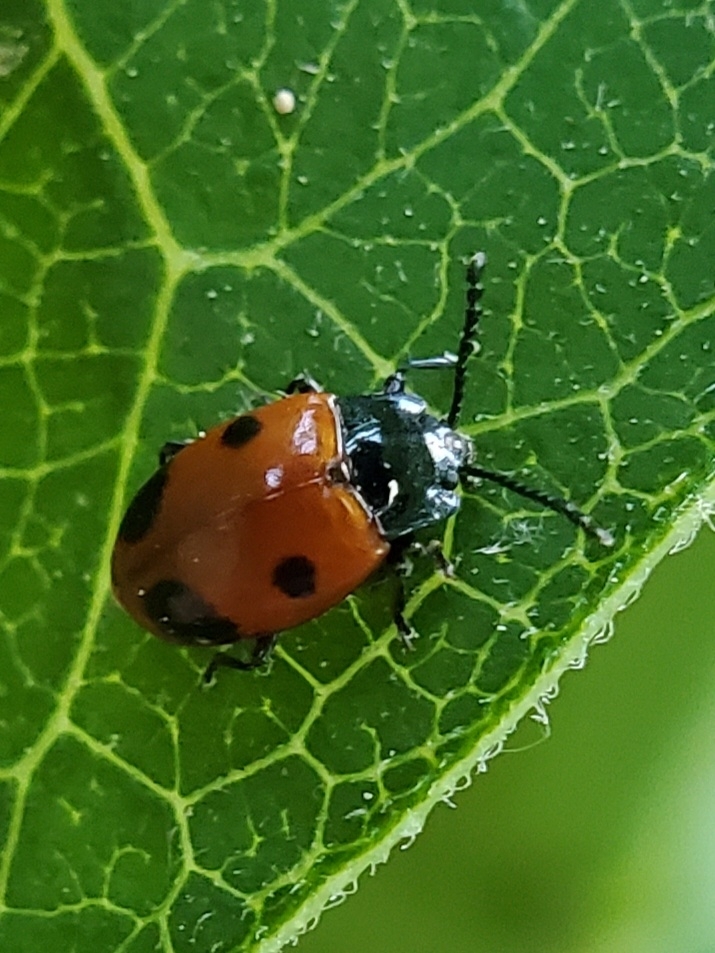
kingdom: Animalia
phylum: Arthropoda
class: Insecta
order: Coleoptera
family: Endomychidae
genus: Endomychus
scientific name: Endomychus biguttatus
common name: Handsome fungus beetle
